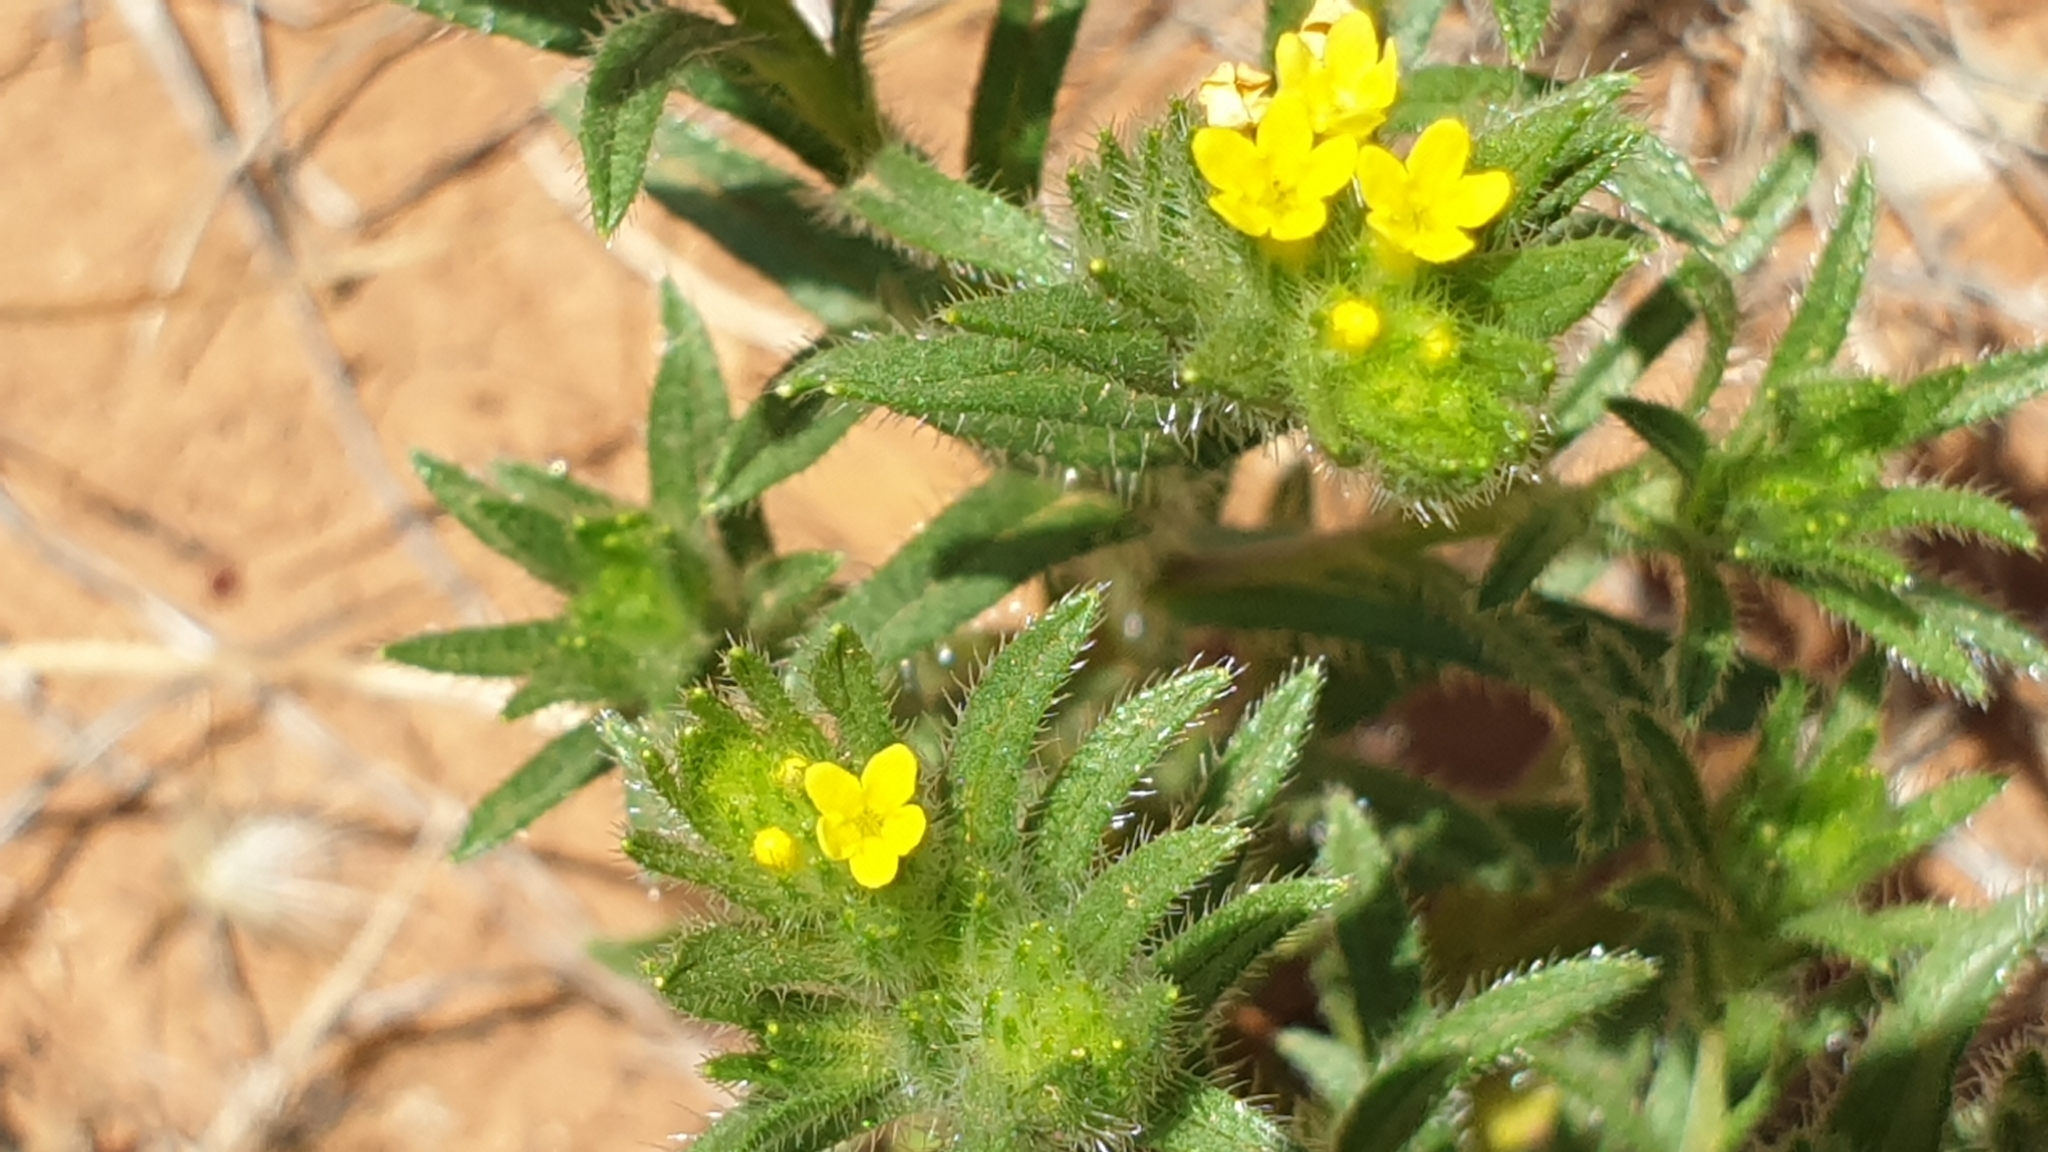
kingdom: Plantae
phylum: Tracheophyta
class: Magnoliopsida
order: Boraginales
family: Boraginaceae
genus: Neatostema
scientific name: Neatostema apulum
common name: Hairy sheepweed
